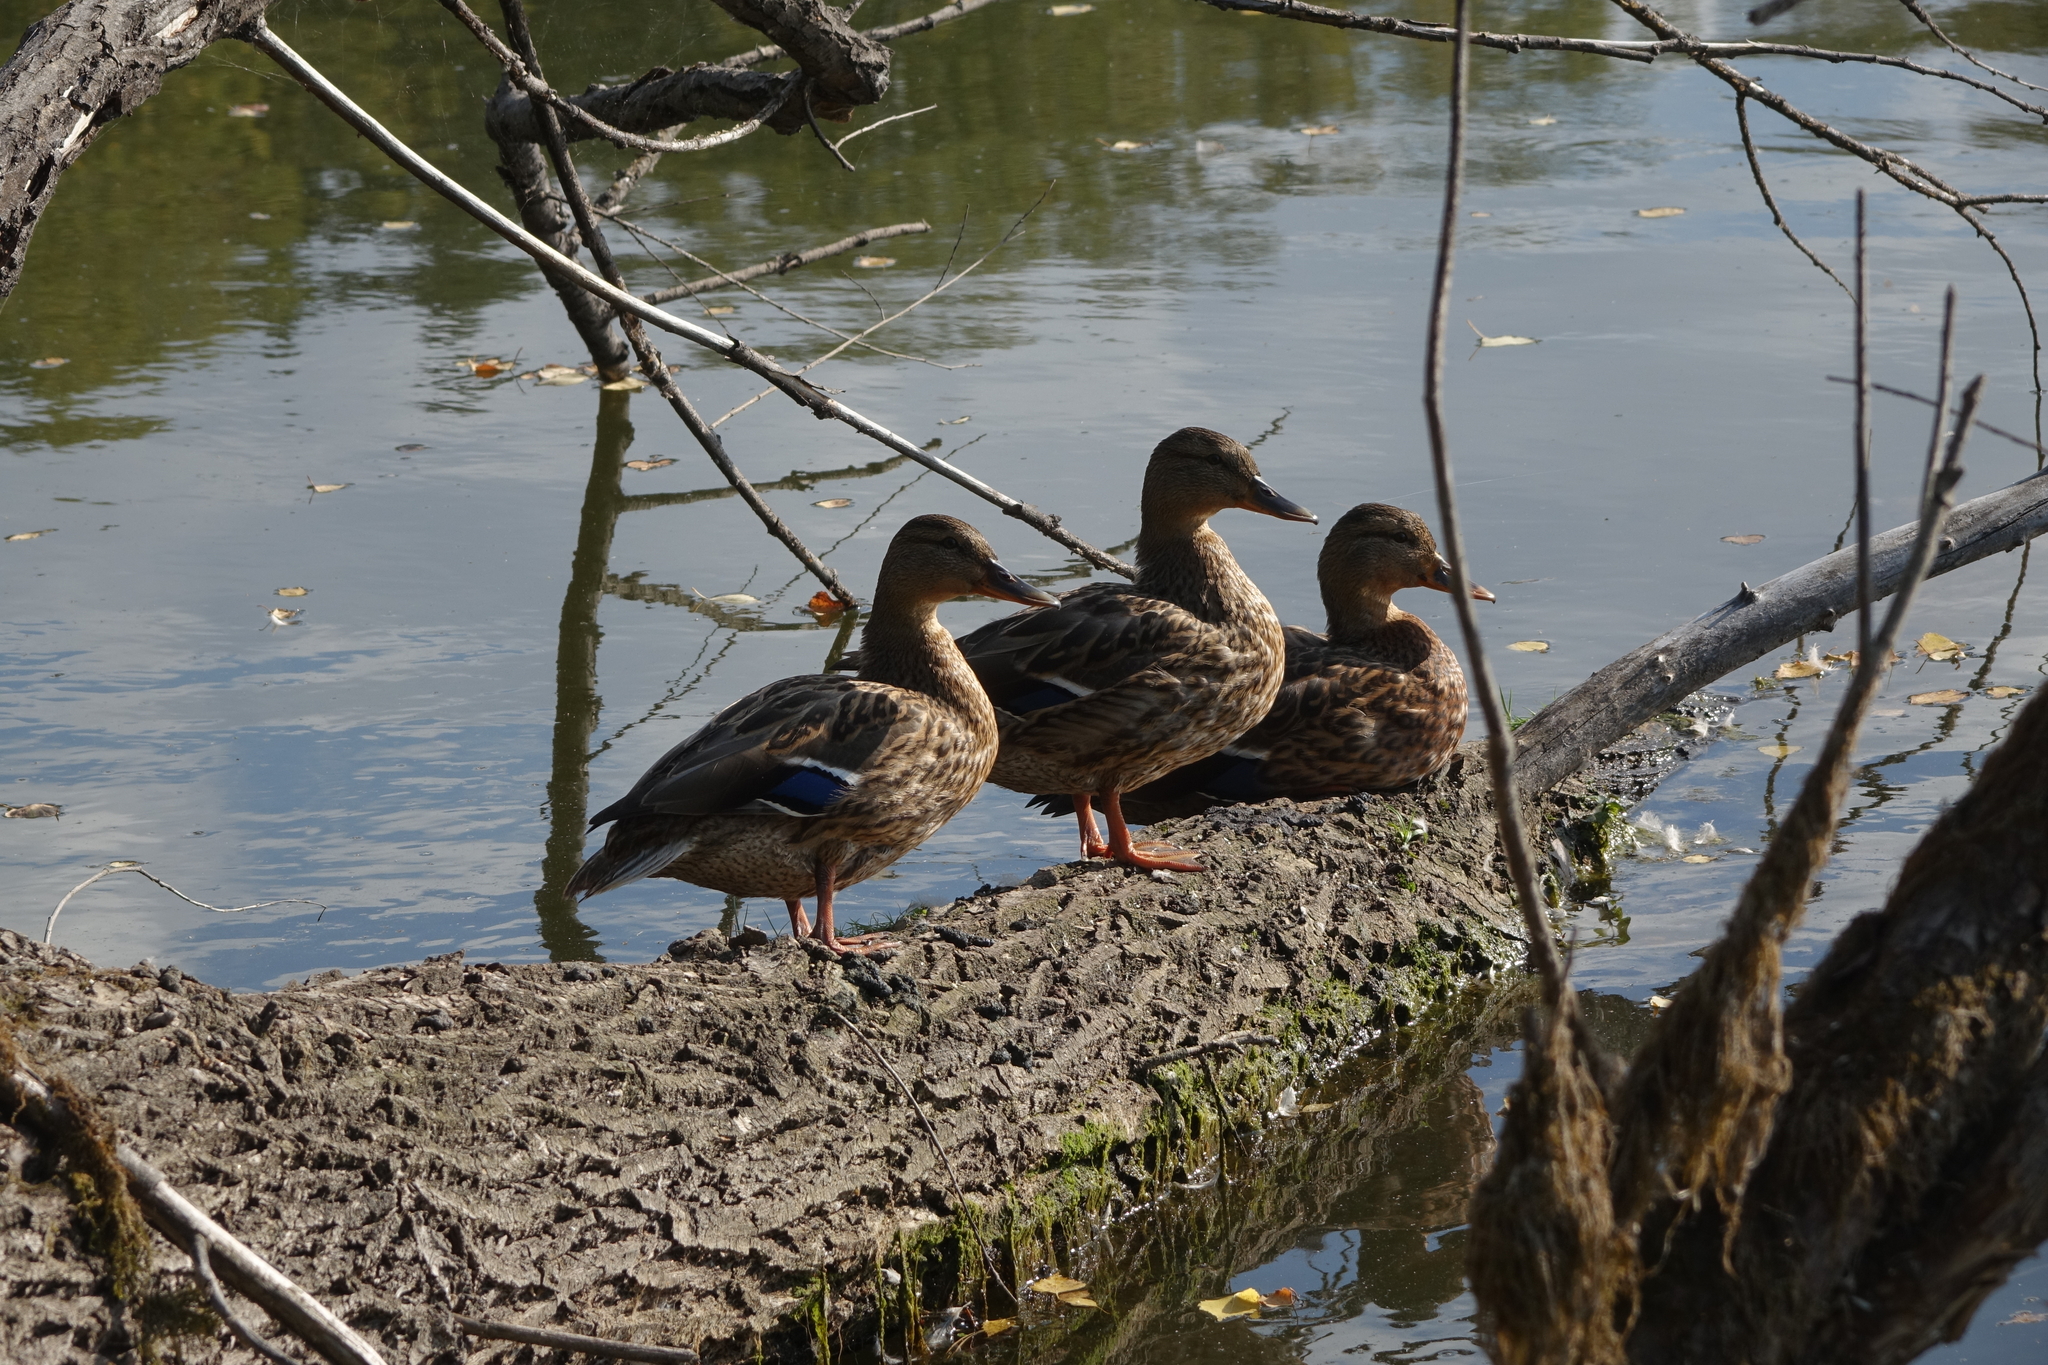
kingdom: Animalia
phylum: Chordata
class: Aves
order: Anseriformes
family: Anatidae
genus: Anas
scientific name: Anas platyrhynchos
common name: Mallard
